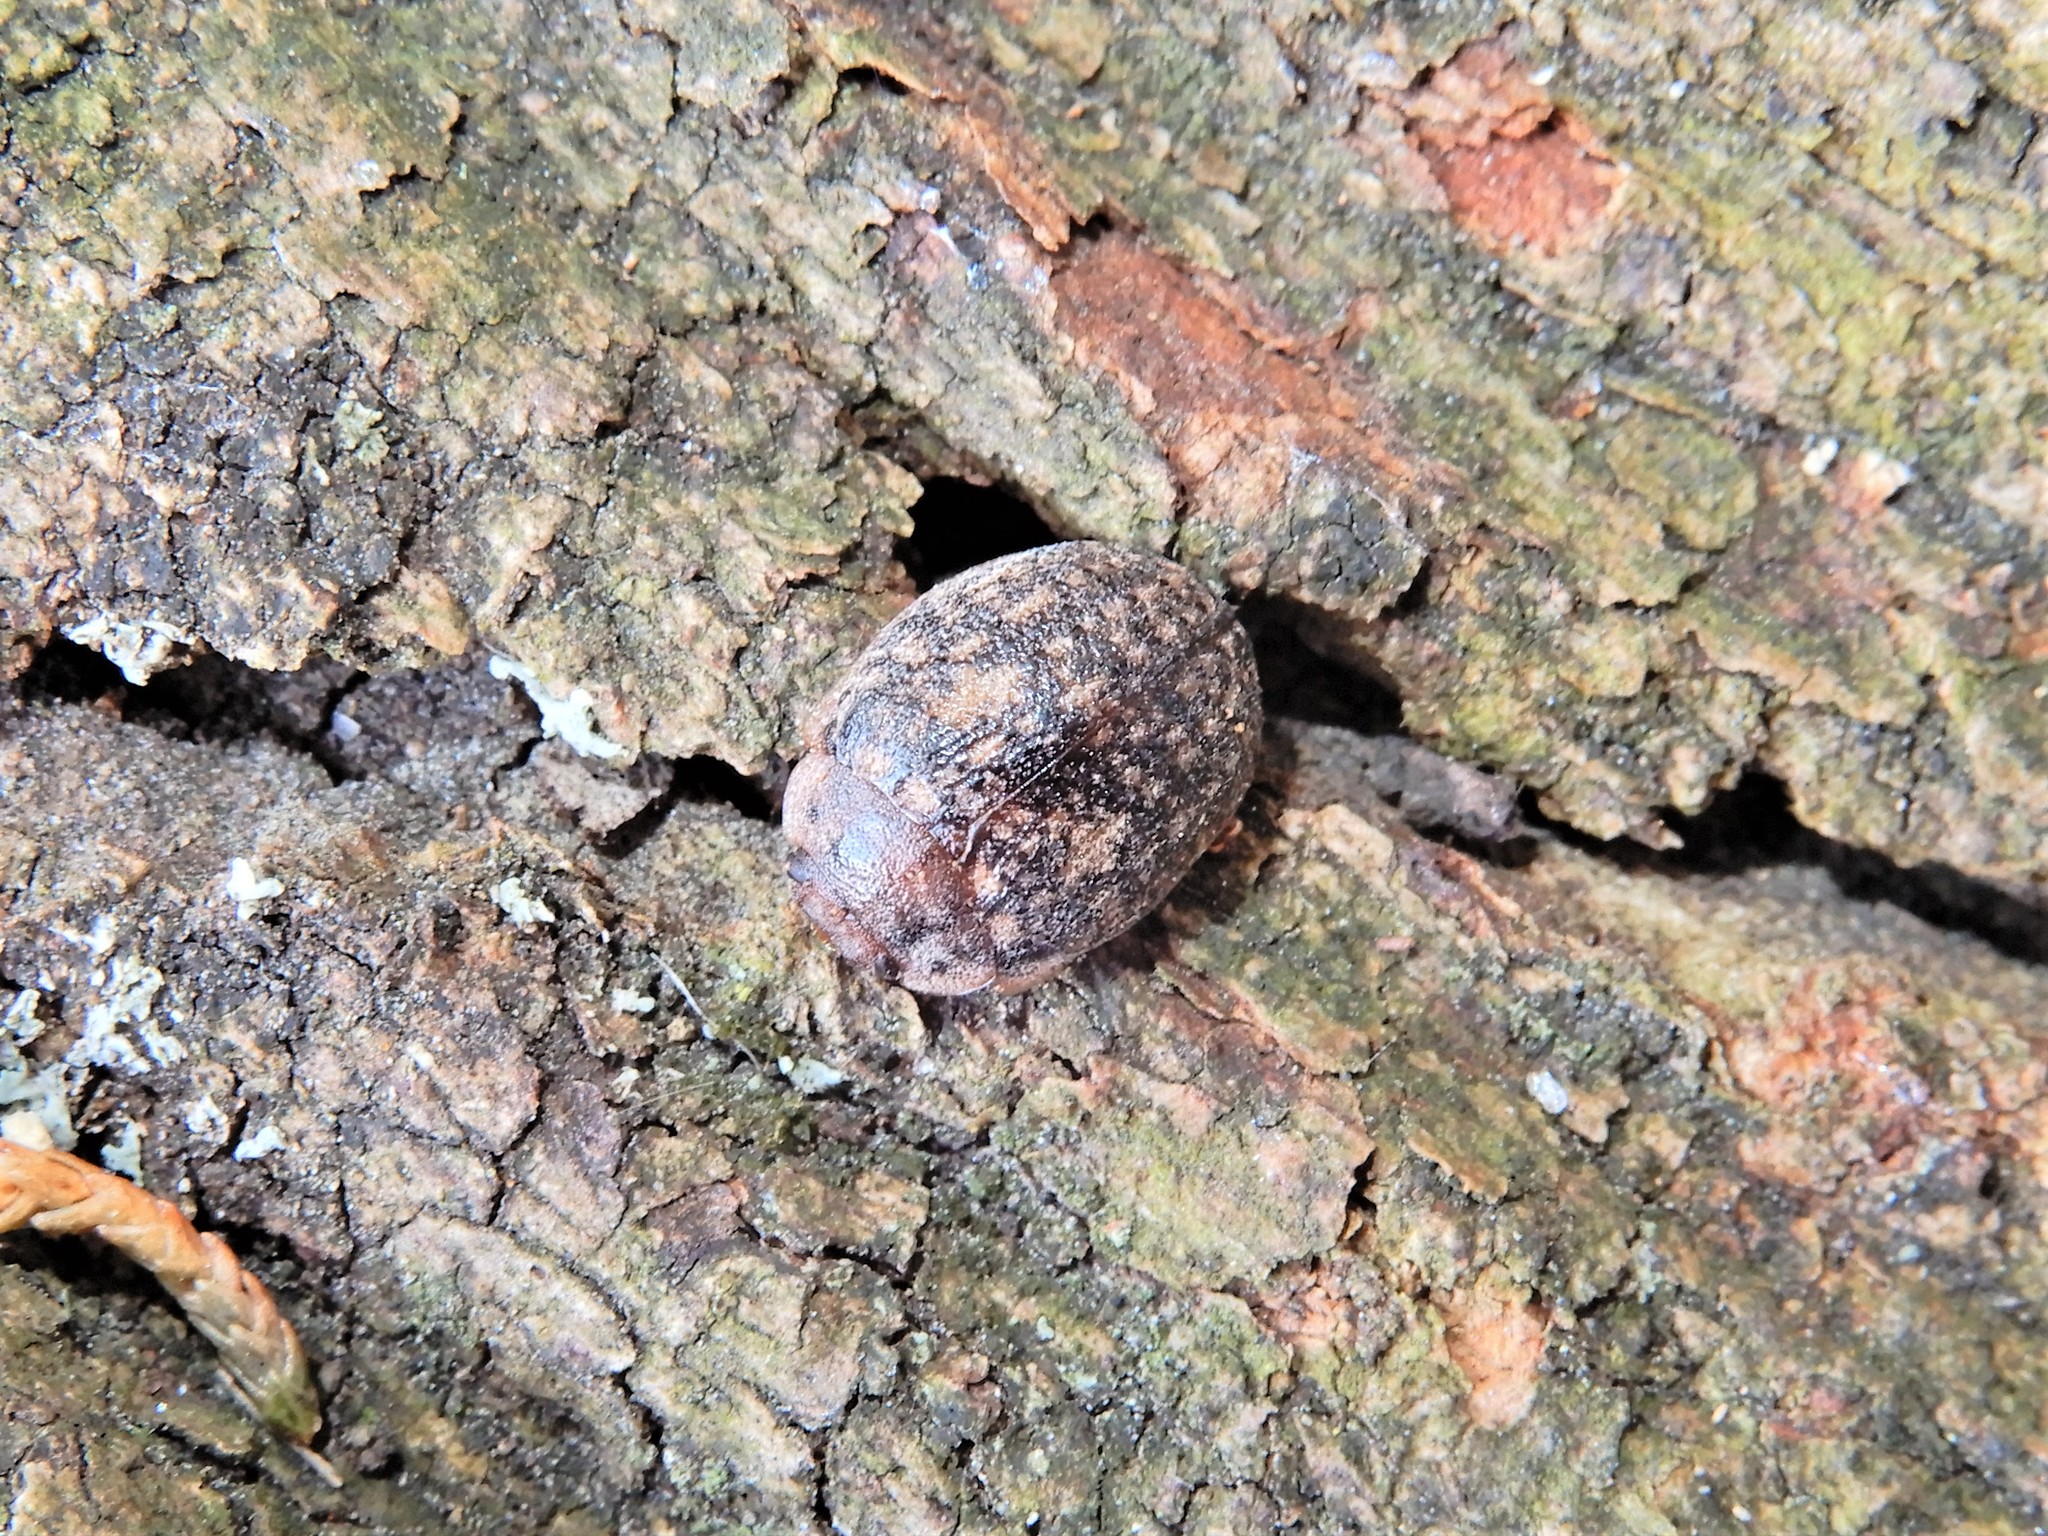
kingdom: Animalia
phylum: Arthropoda
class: Insecta
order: Coleoptera
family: Chrysomelidae
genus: Trachymela
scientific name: Trachymela sloanei
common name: Australian tortoise beetle
